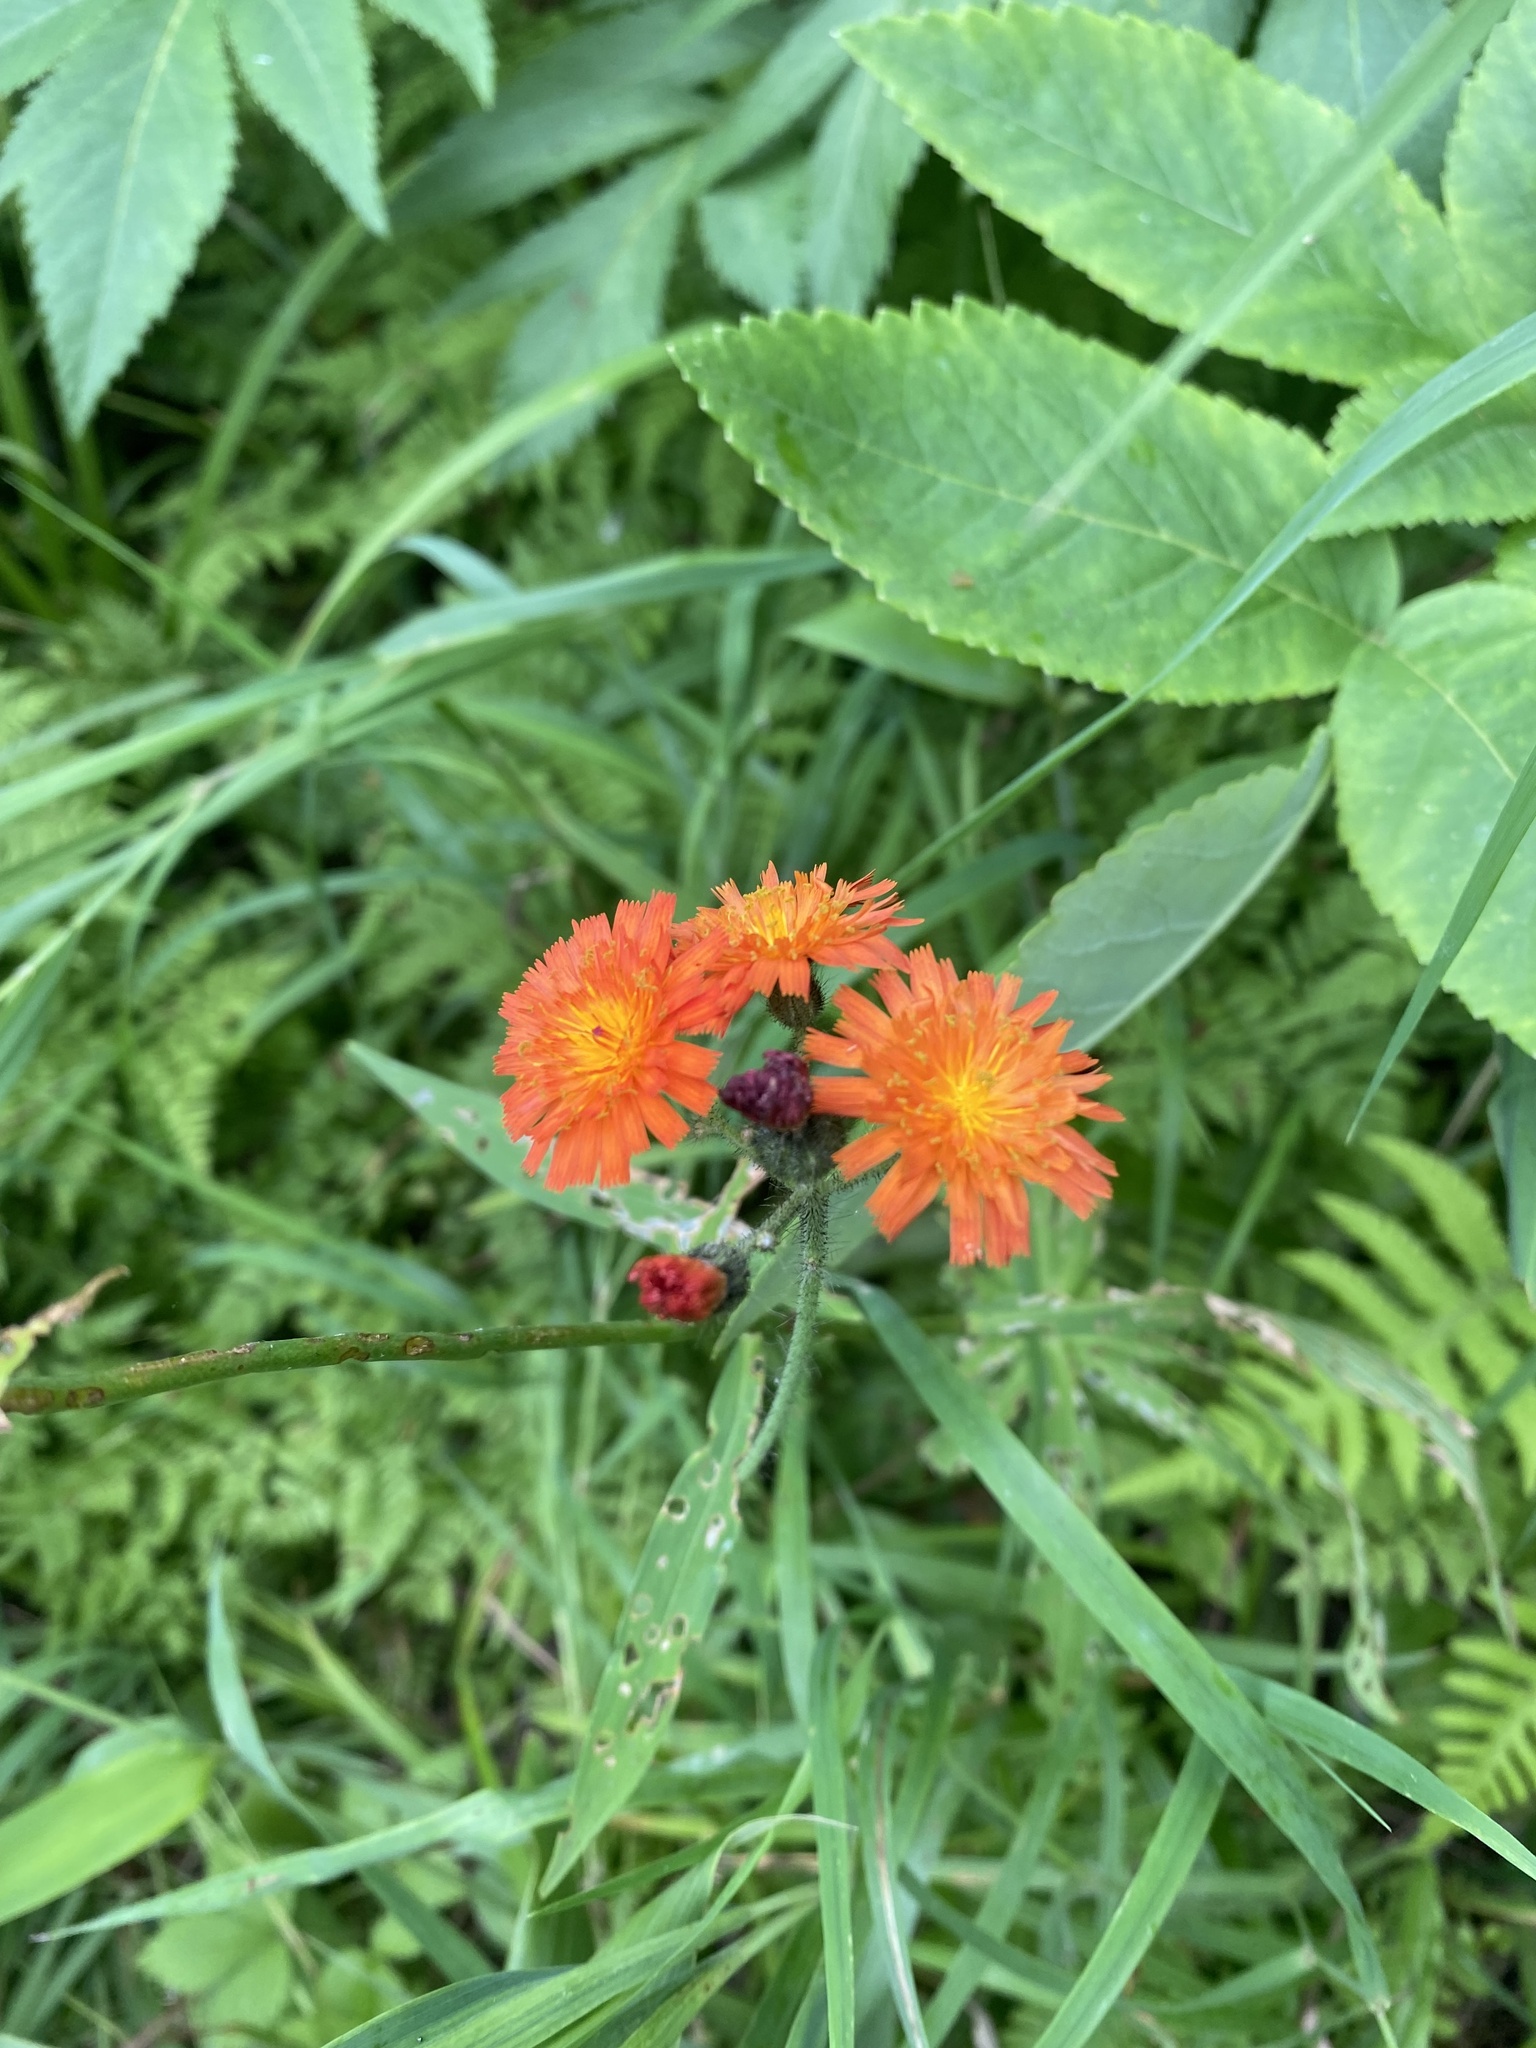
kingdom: Plantae
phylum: Tracheophyta
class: Magnoliopsida
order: Asterales
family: Asteraceae
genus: Pilosella
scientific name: Pilosella aurantiaca
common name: Fox-and-cubs
